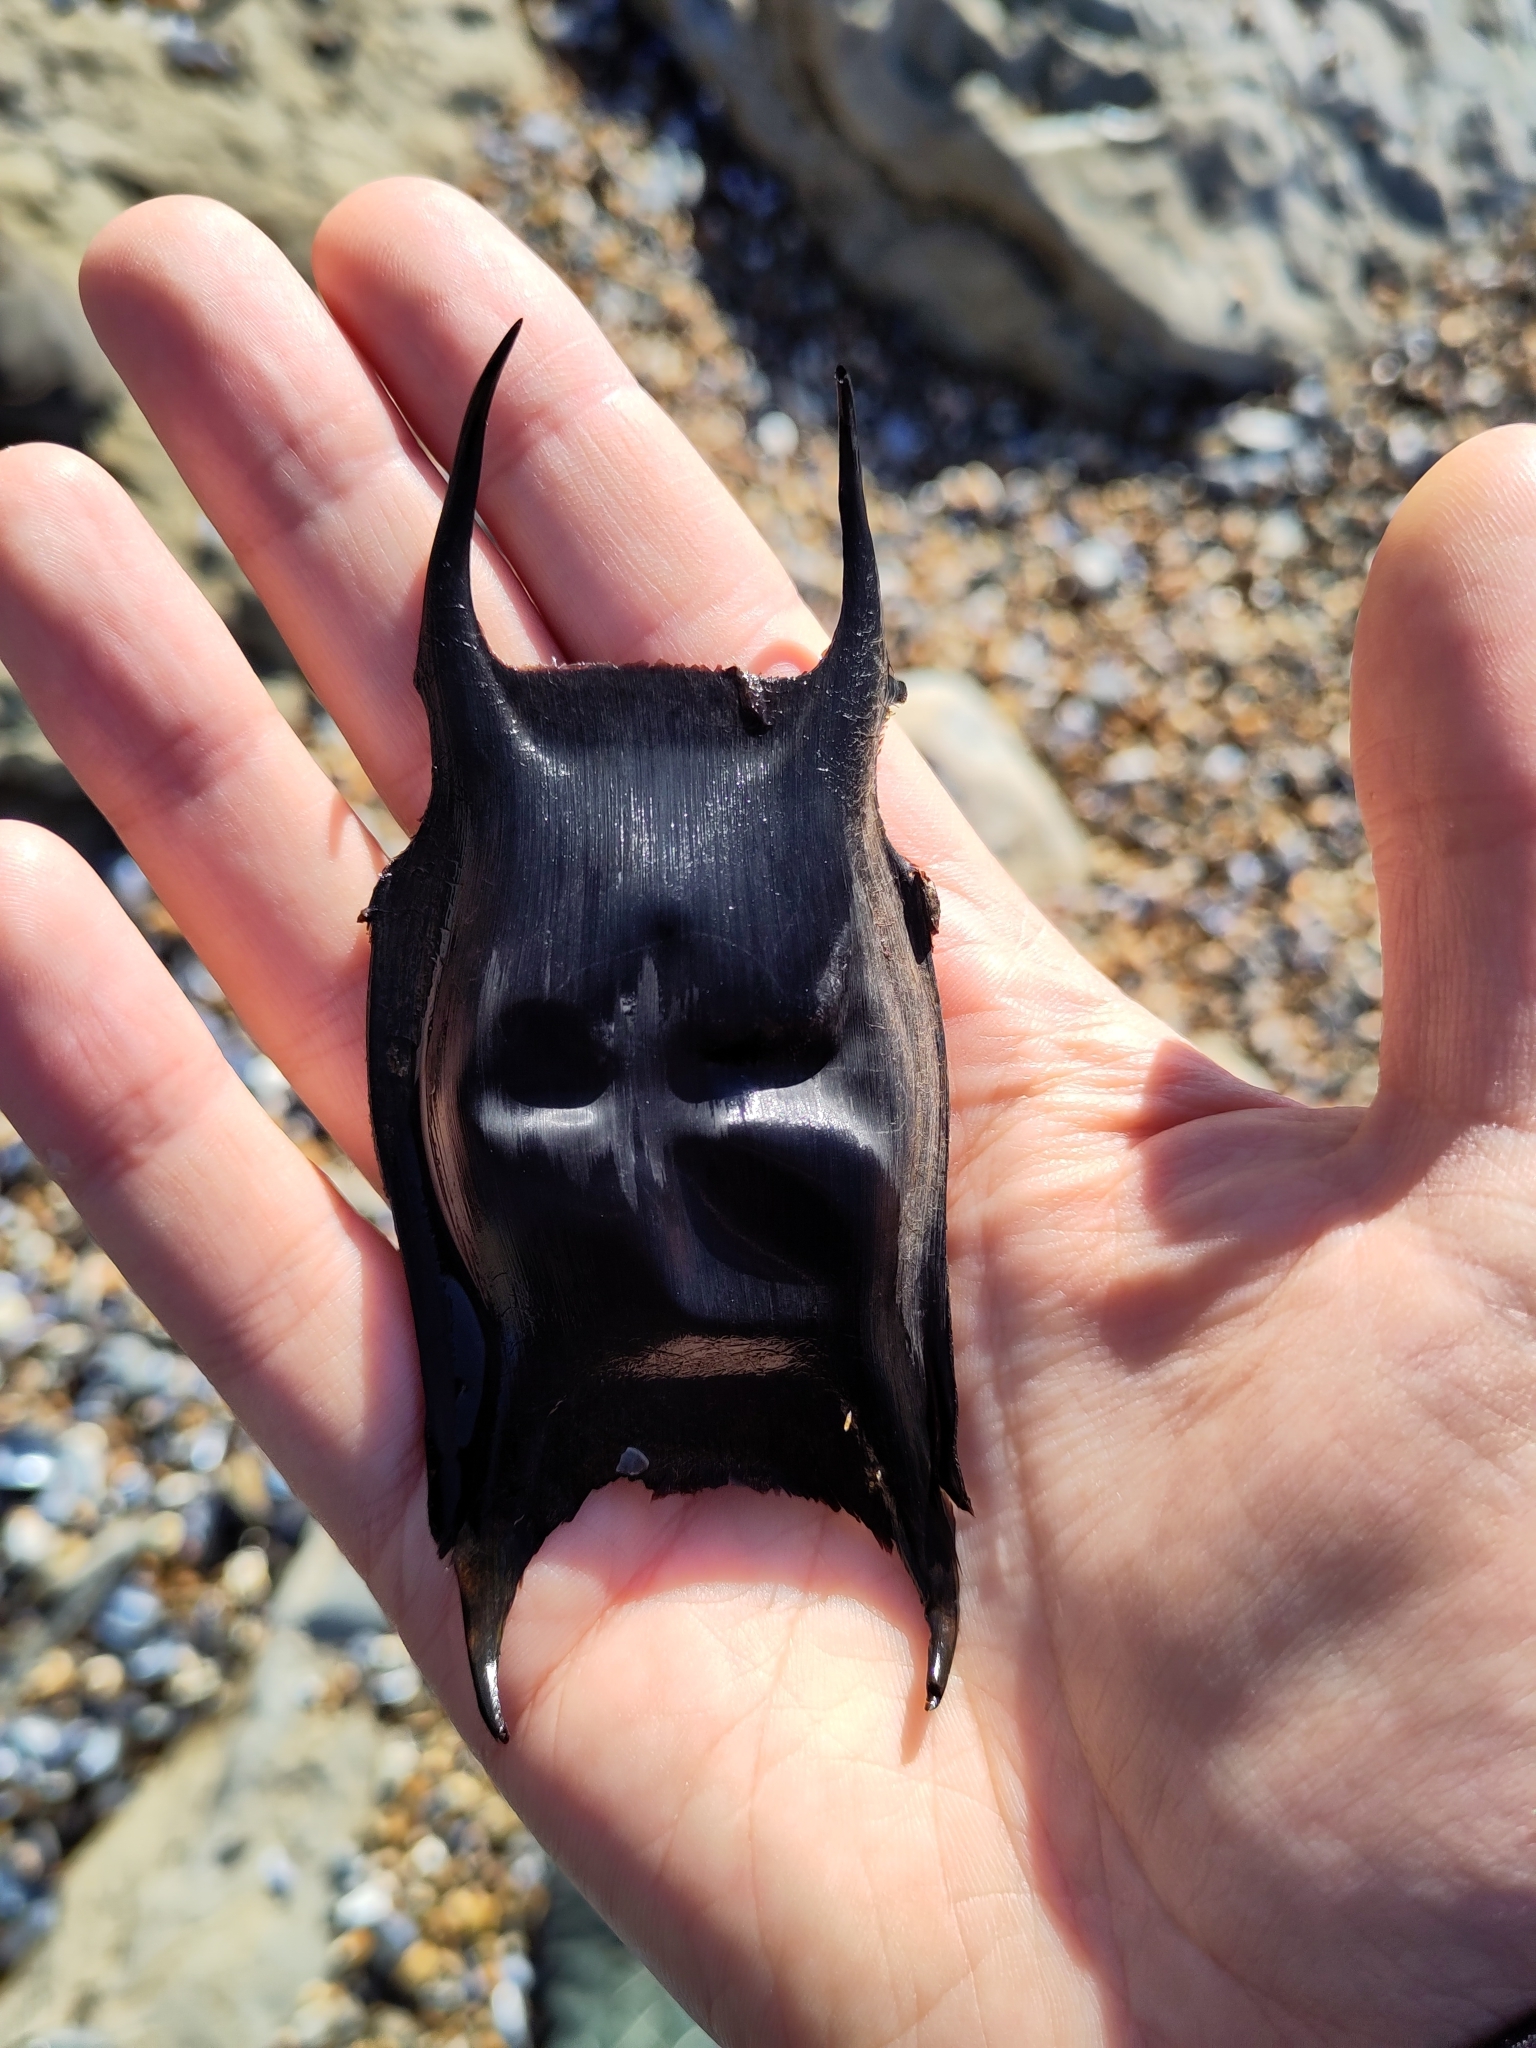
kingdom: Animalia
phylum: Chordata
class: Elasmobranchii
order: Rajiformes
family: Rajidae
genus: Raja
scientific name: Raja clavata
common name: Thornback ray
